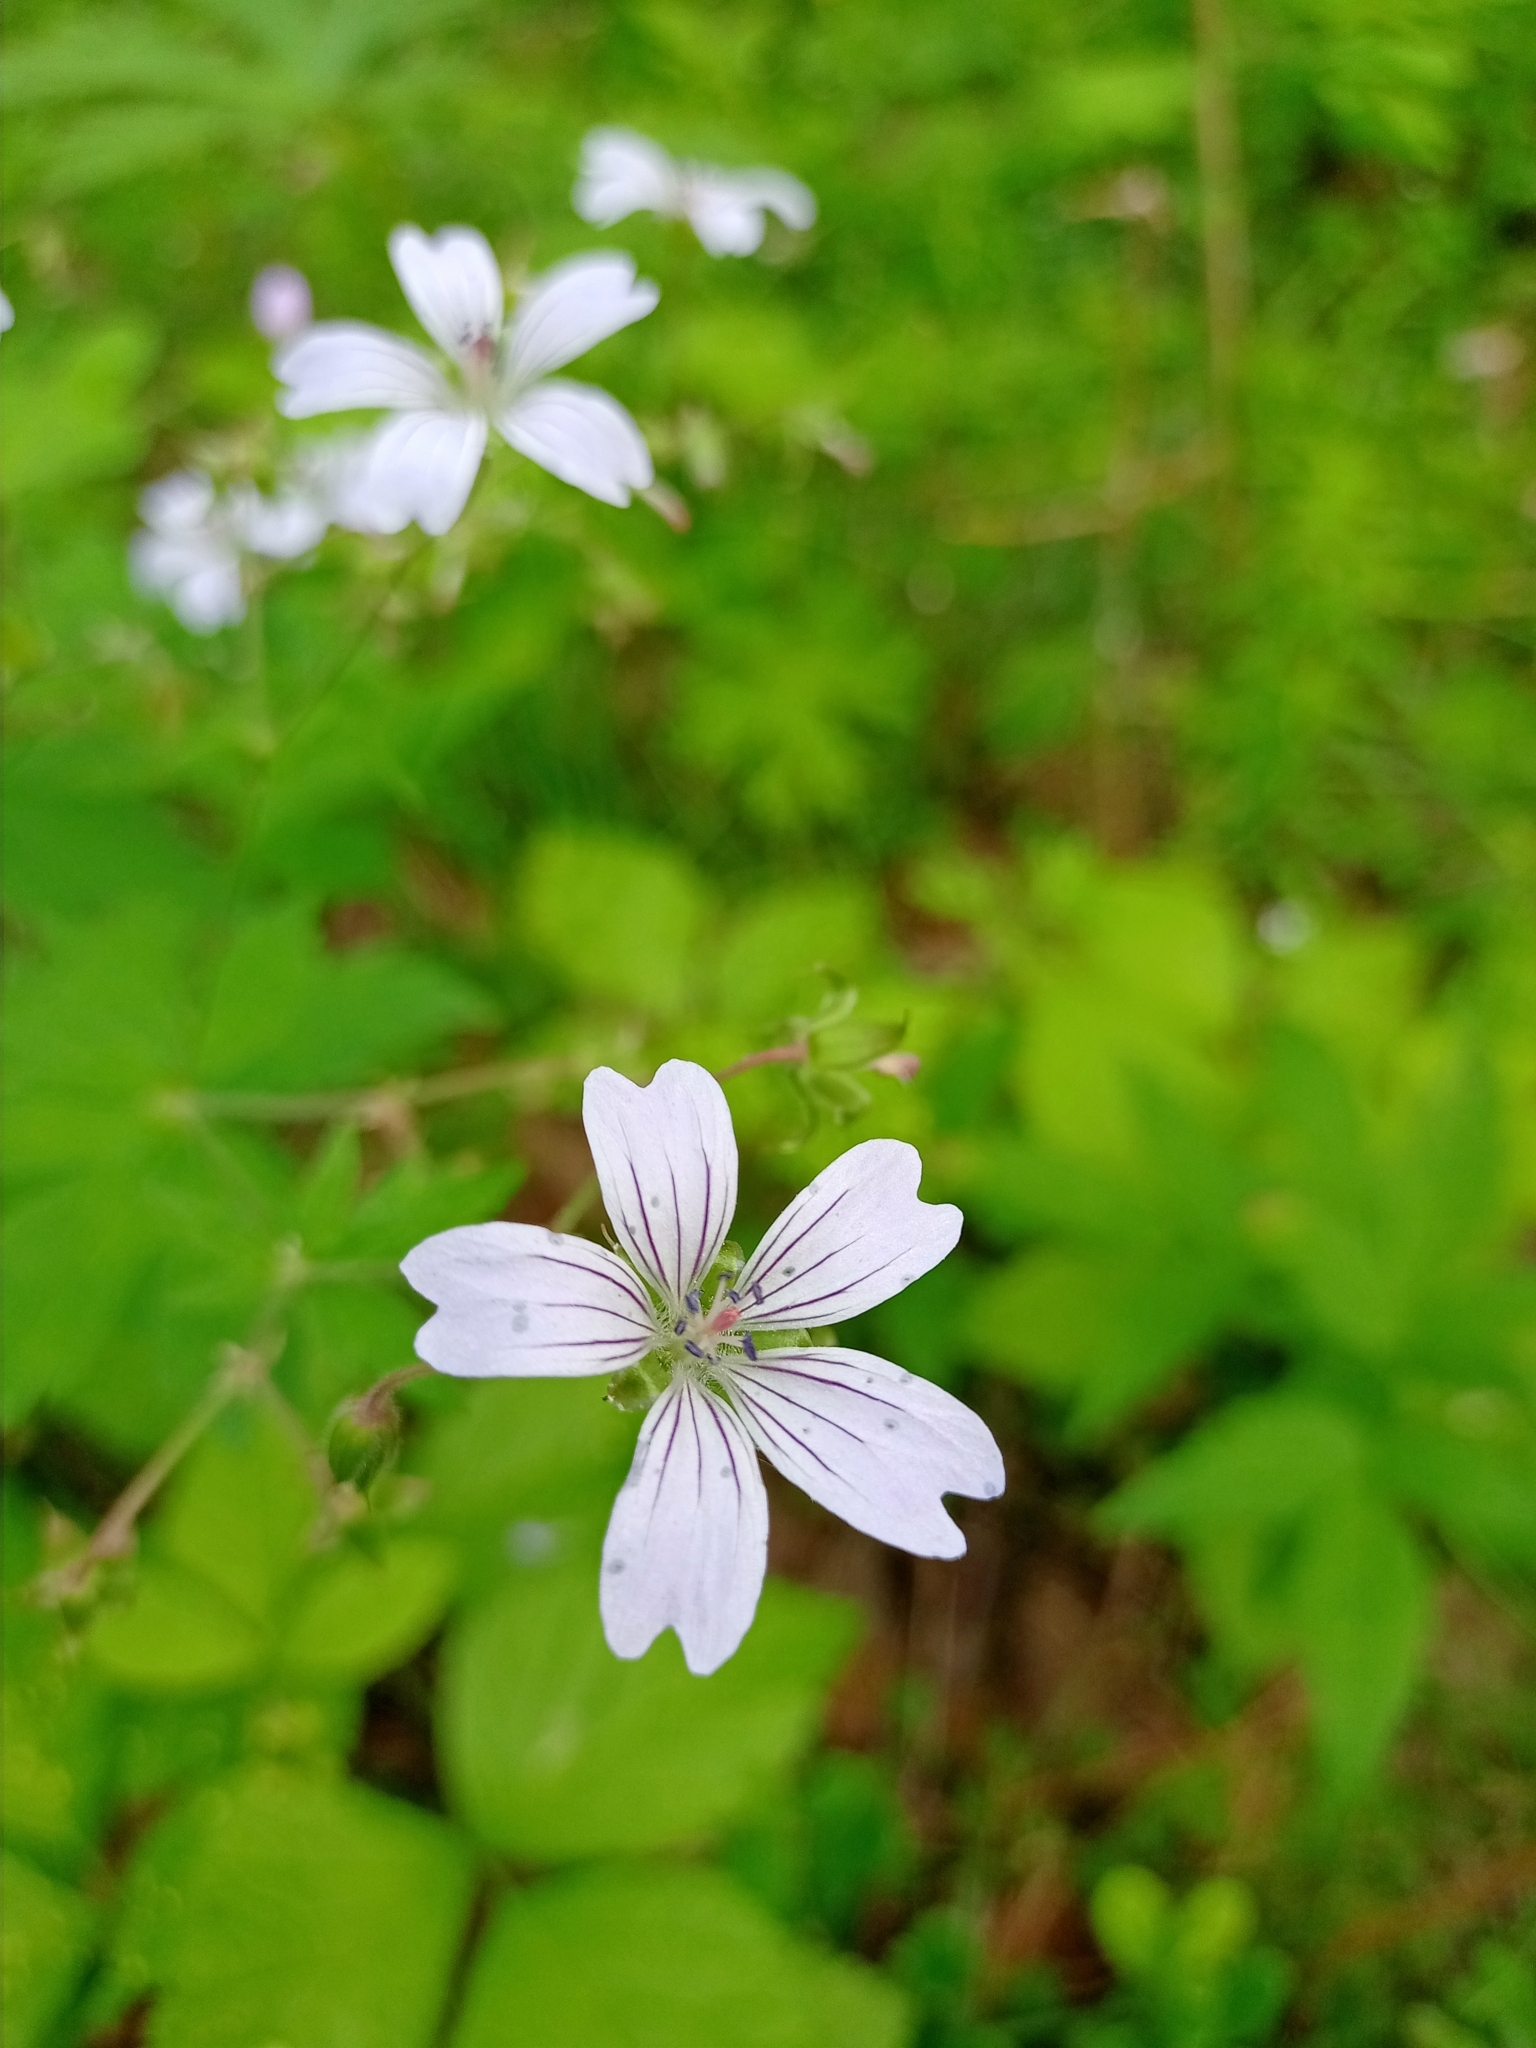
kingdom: Plantae
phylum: Tracheophyta
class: Magnoliopsida
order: Geraniales
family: Geraniaceae
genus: Geranium
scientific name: Geranium sylvaticum
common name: Wood crane's-bill
